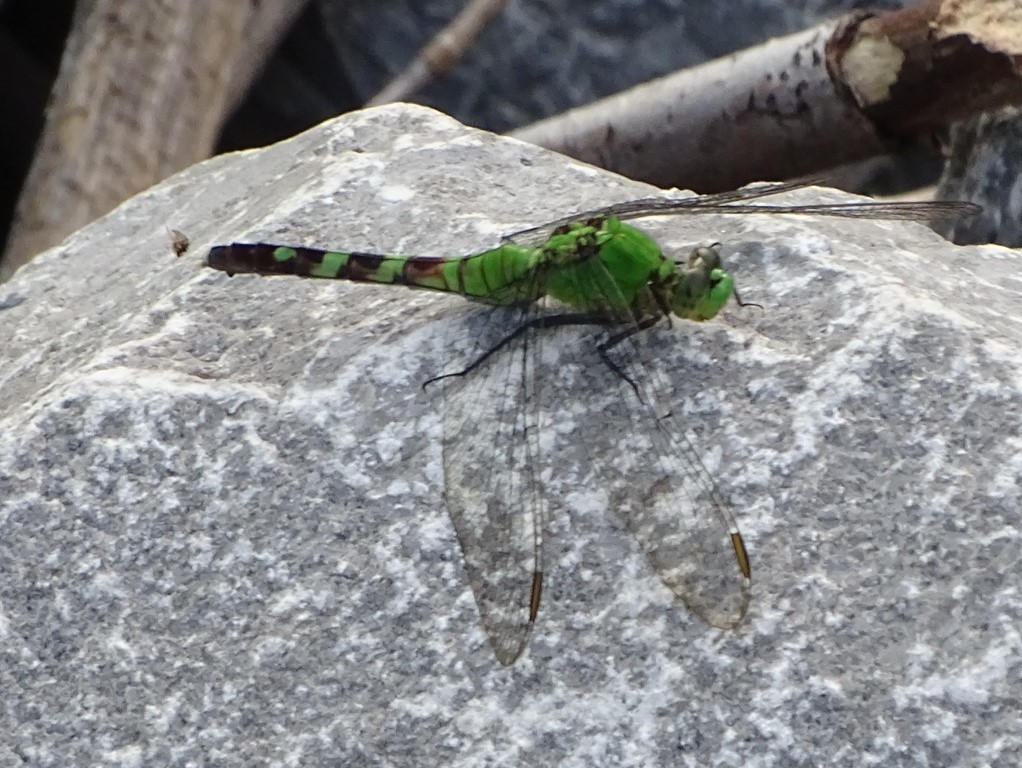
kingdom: Animalia
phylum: Arthropoda
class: Insecta
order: Odonata
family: Libellulidae
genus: Erythemis
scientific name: Erythemis simplicicollis
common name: Eastern pondhawk
